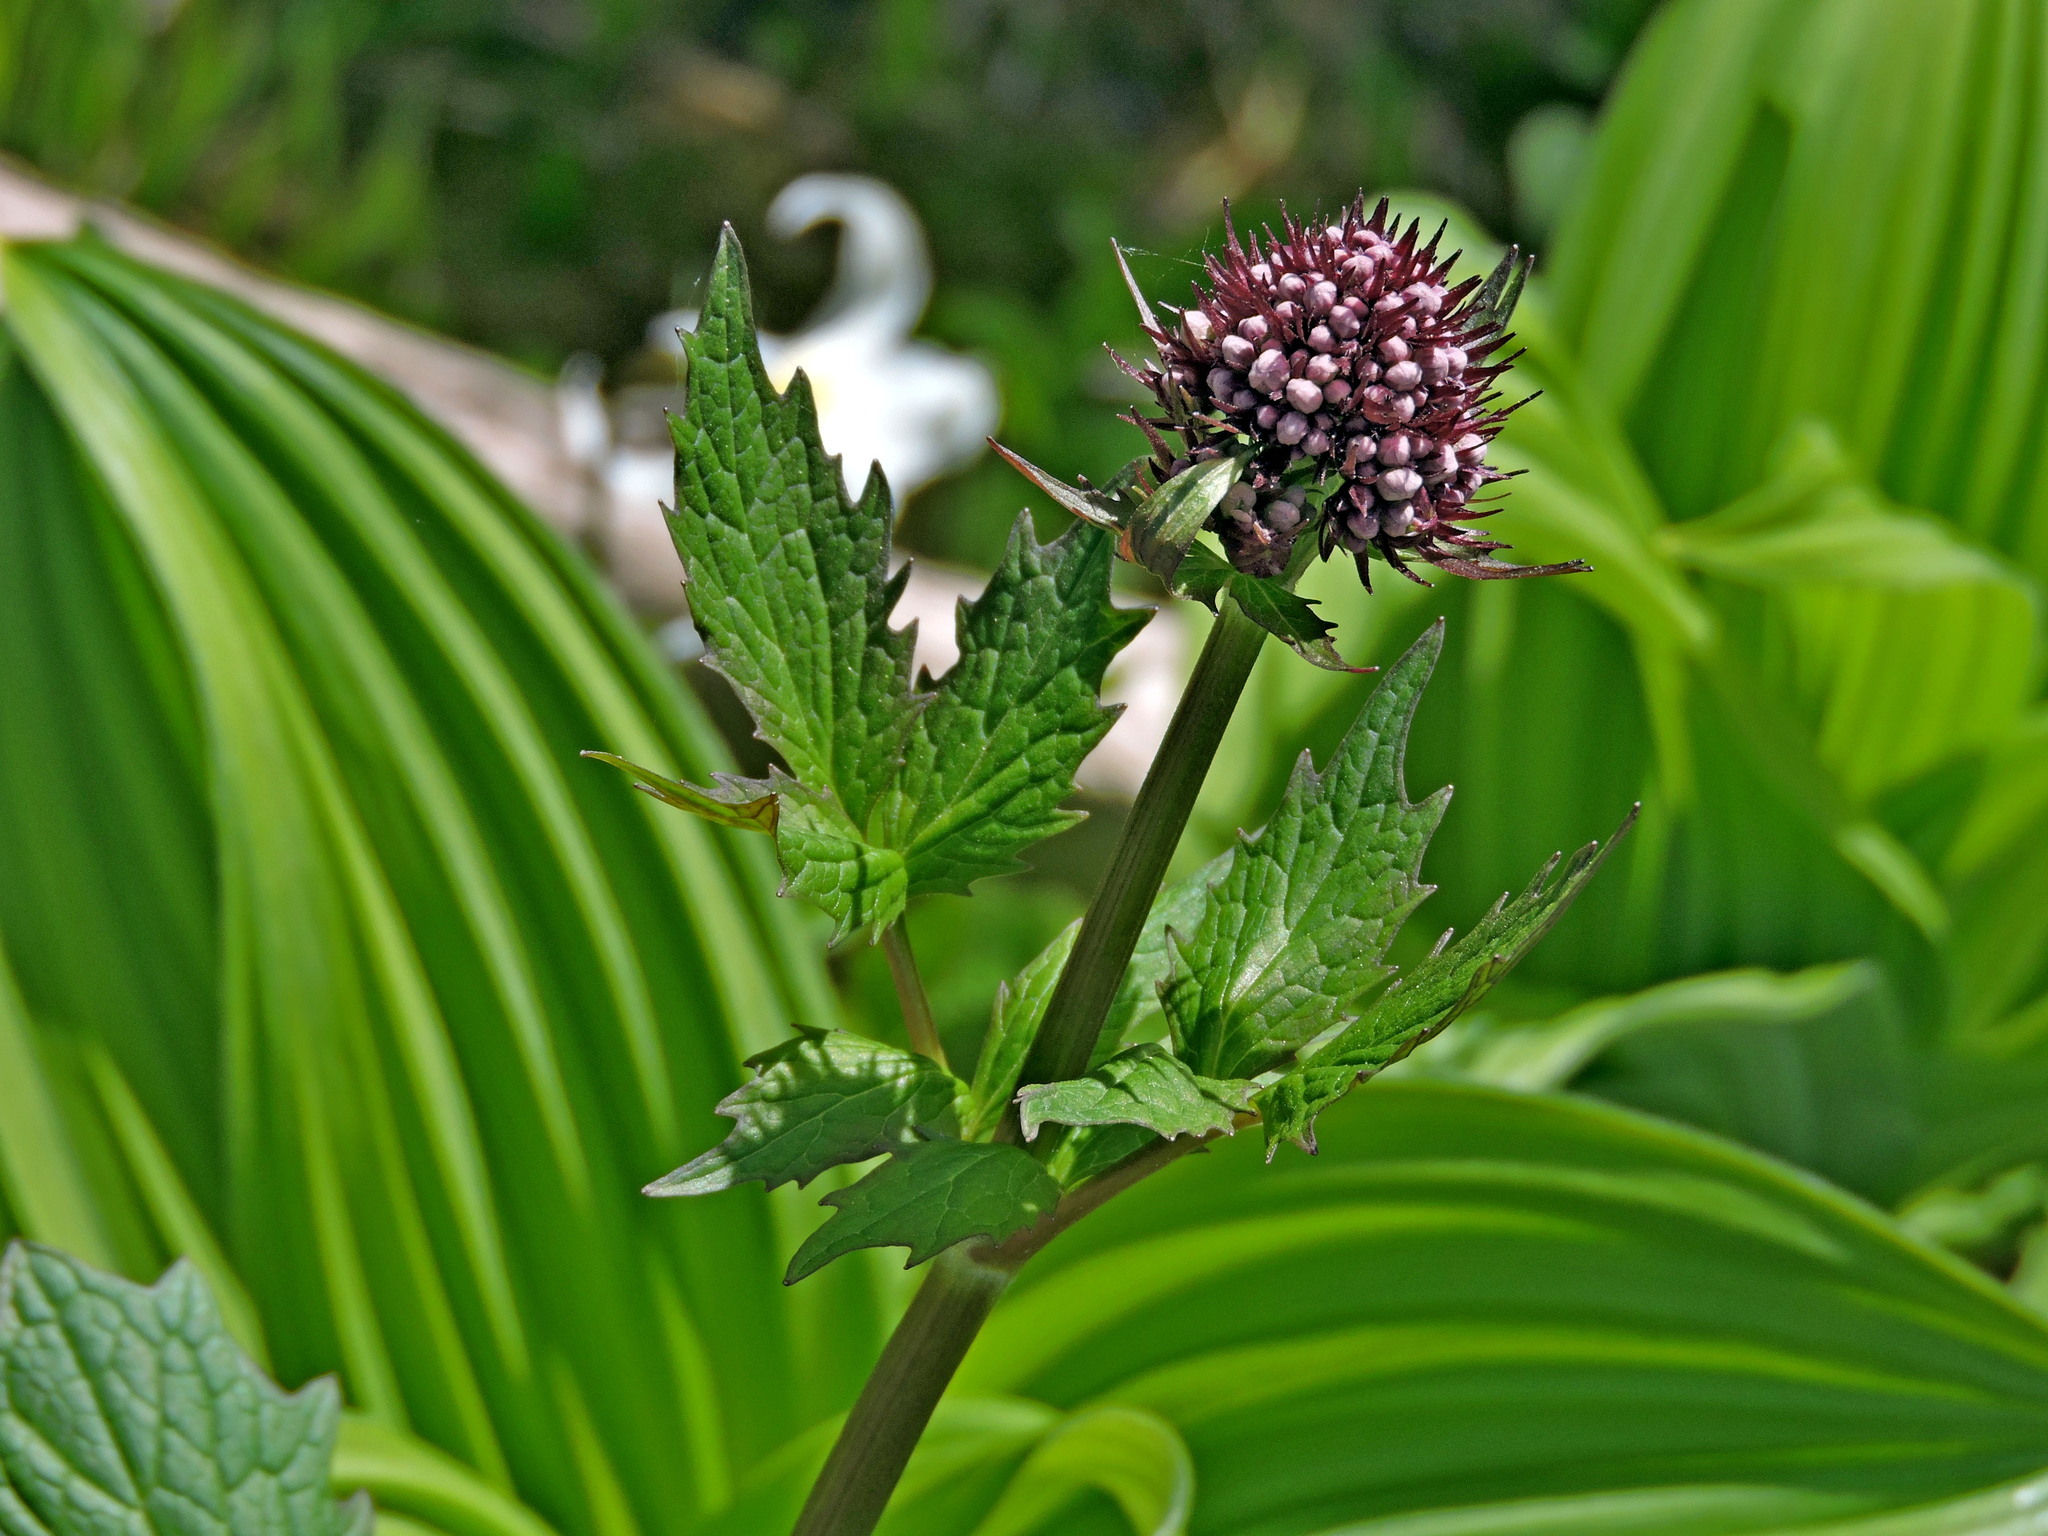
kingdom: Plantae
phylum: Tracheophyta
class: Magnoliopsida
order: Dipsacales
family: Caprifoliaceae
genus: Valeriana
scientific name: Valeriana sitchensis
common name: Pacific valerian
